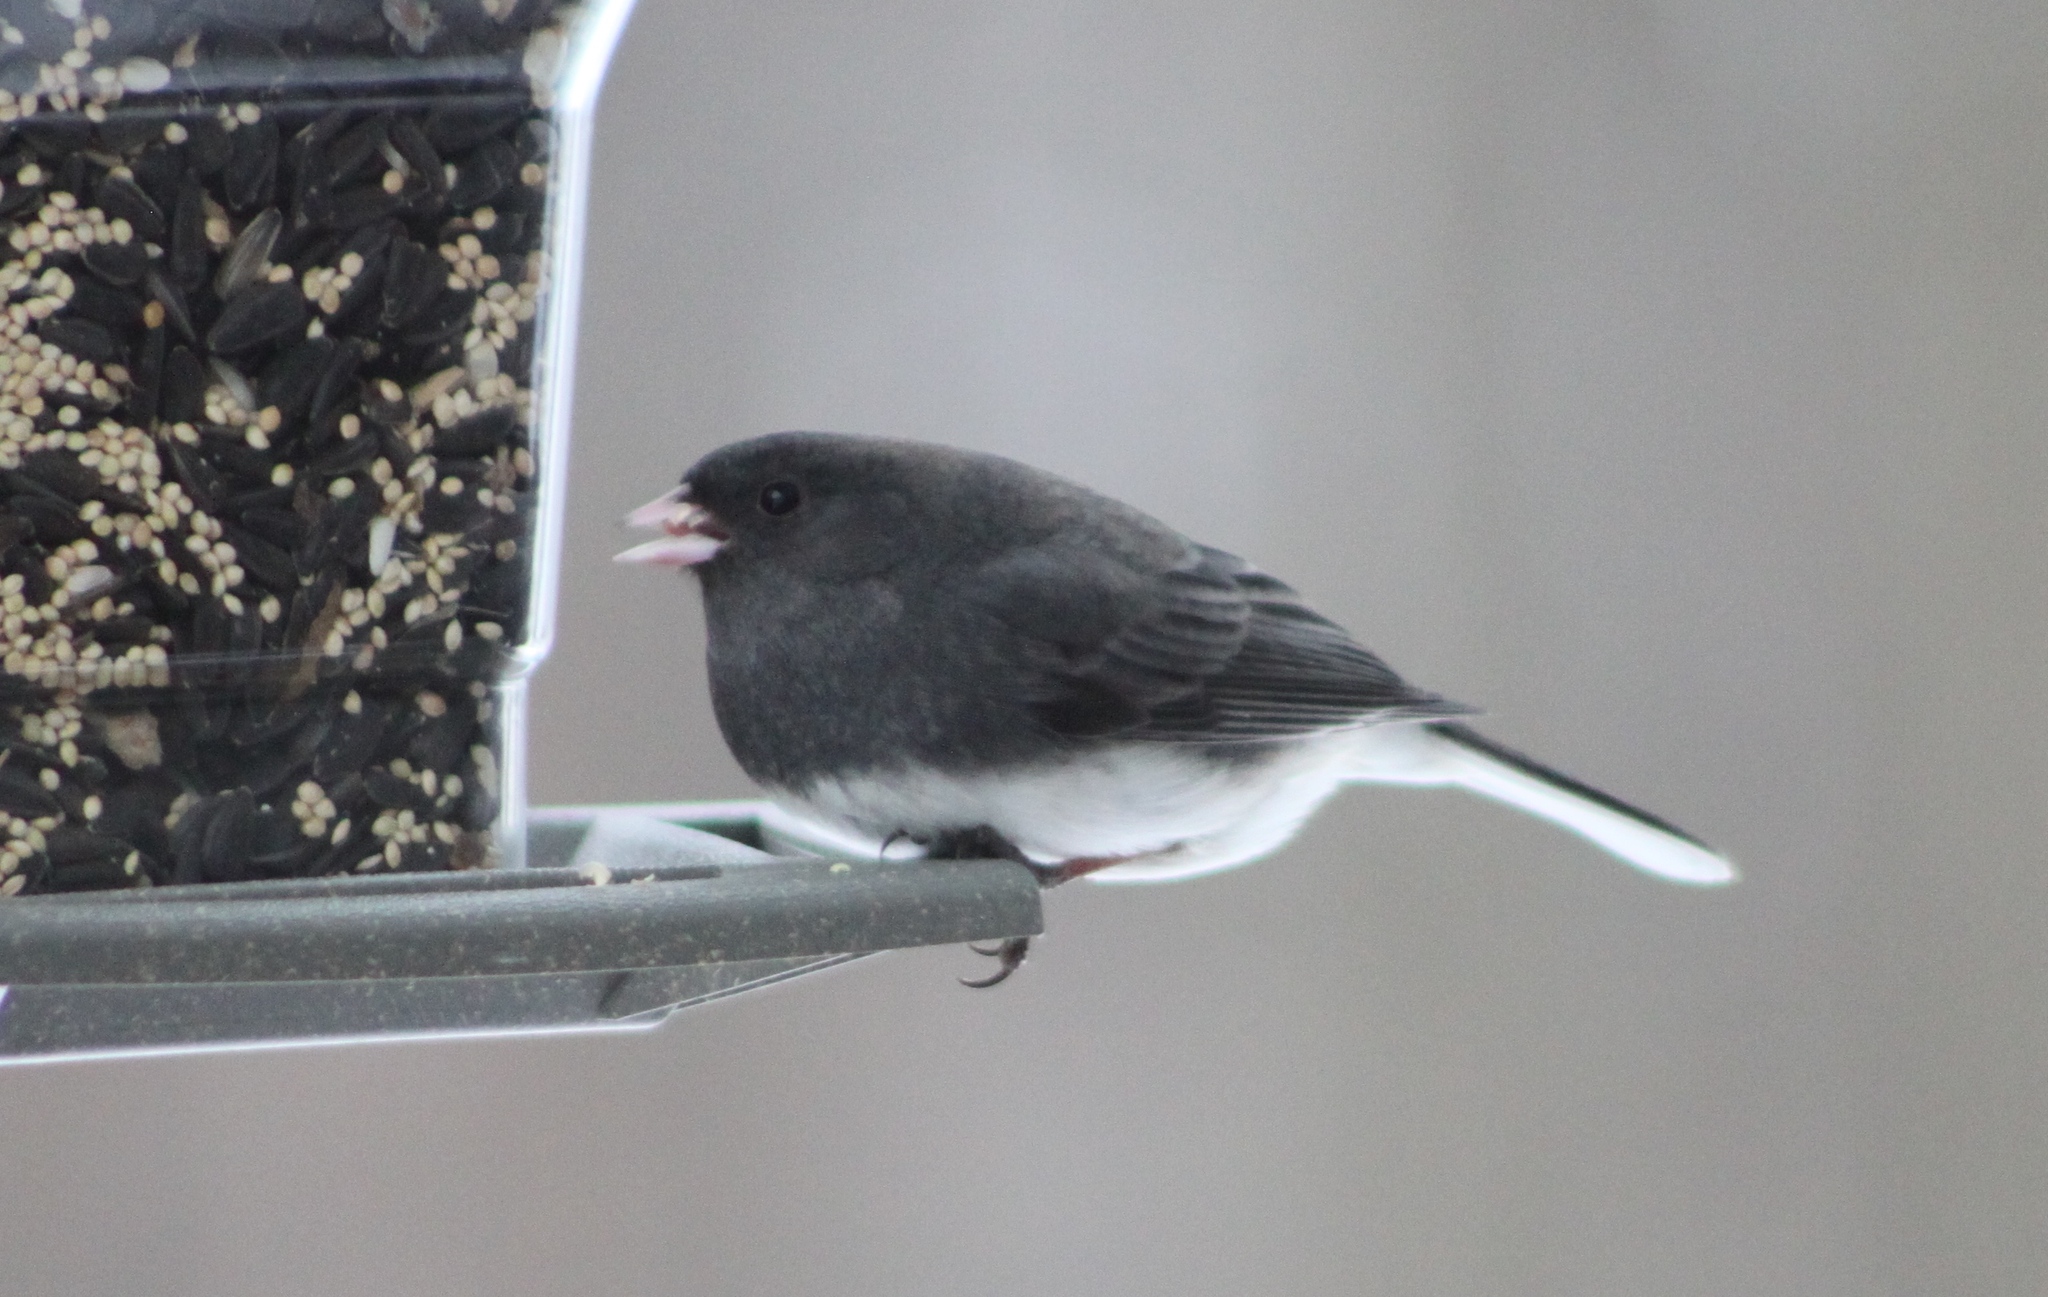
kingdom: Animalia
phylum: Chordata
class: Aves
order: Passeriformes
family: Passerellidae
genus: Junco
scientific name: Junco hyemalis
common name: Dark-eyed junco
